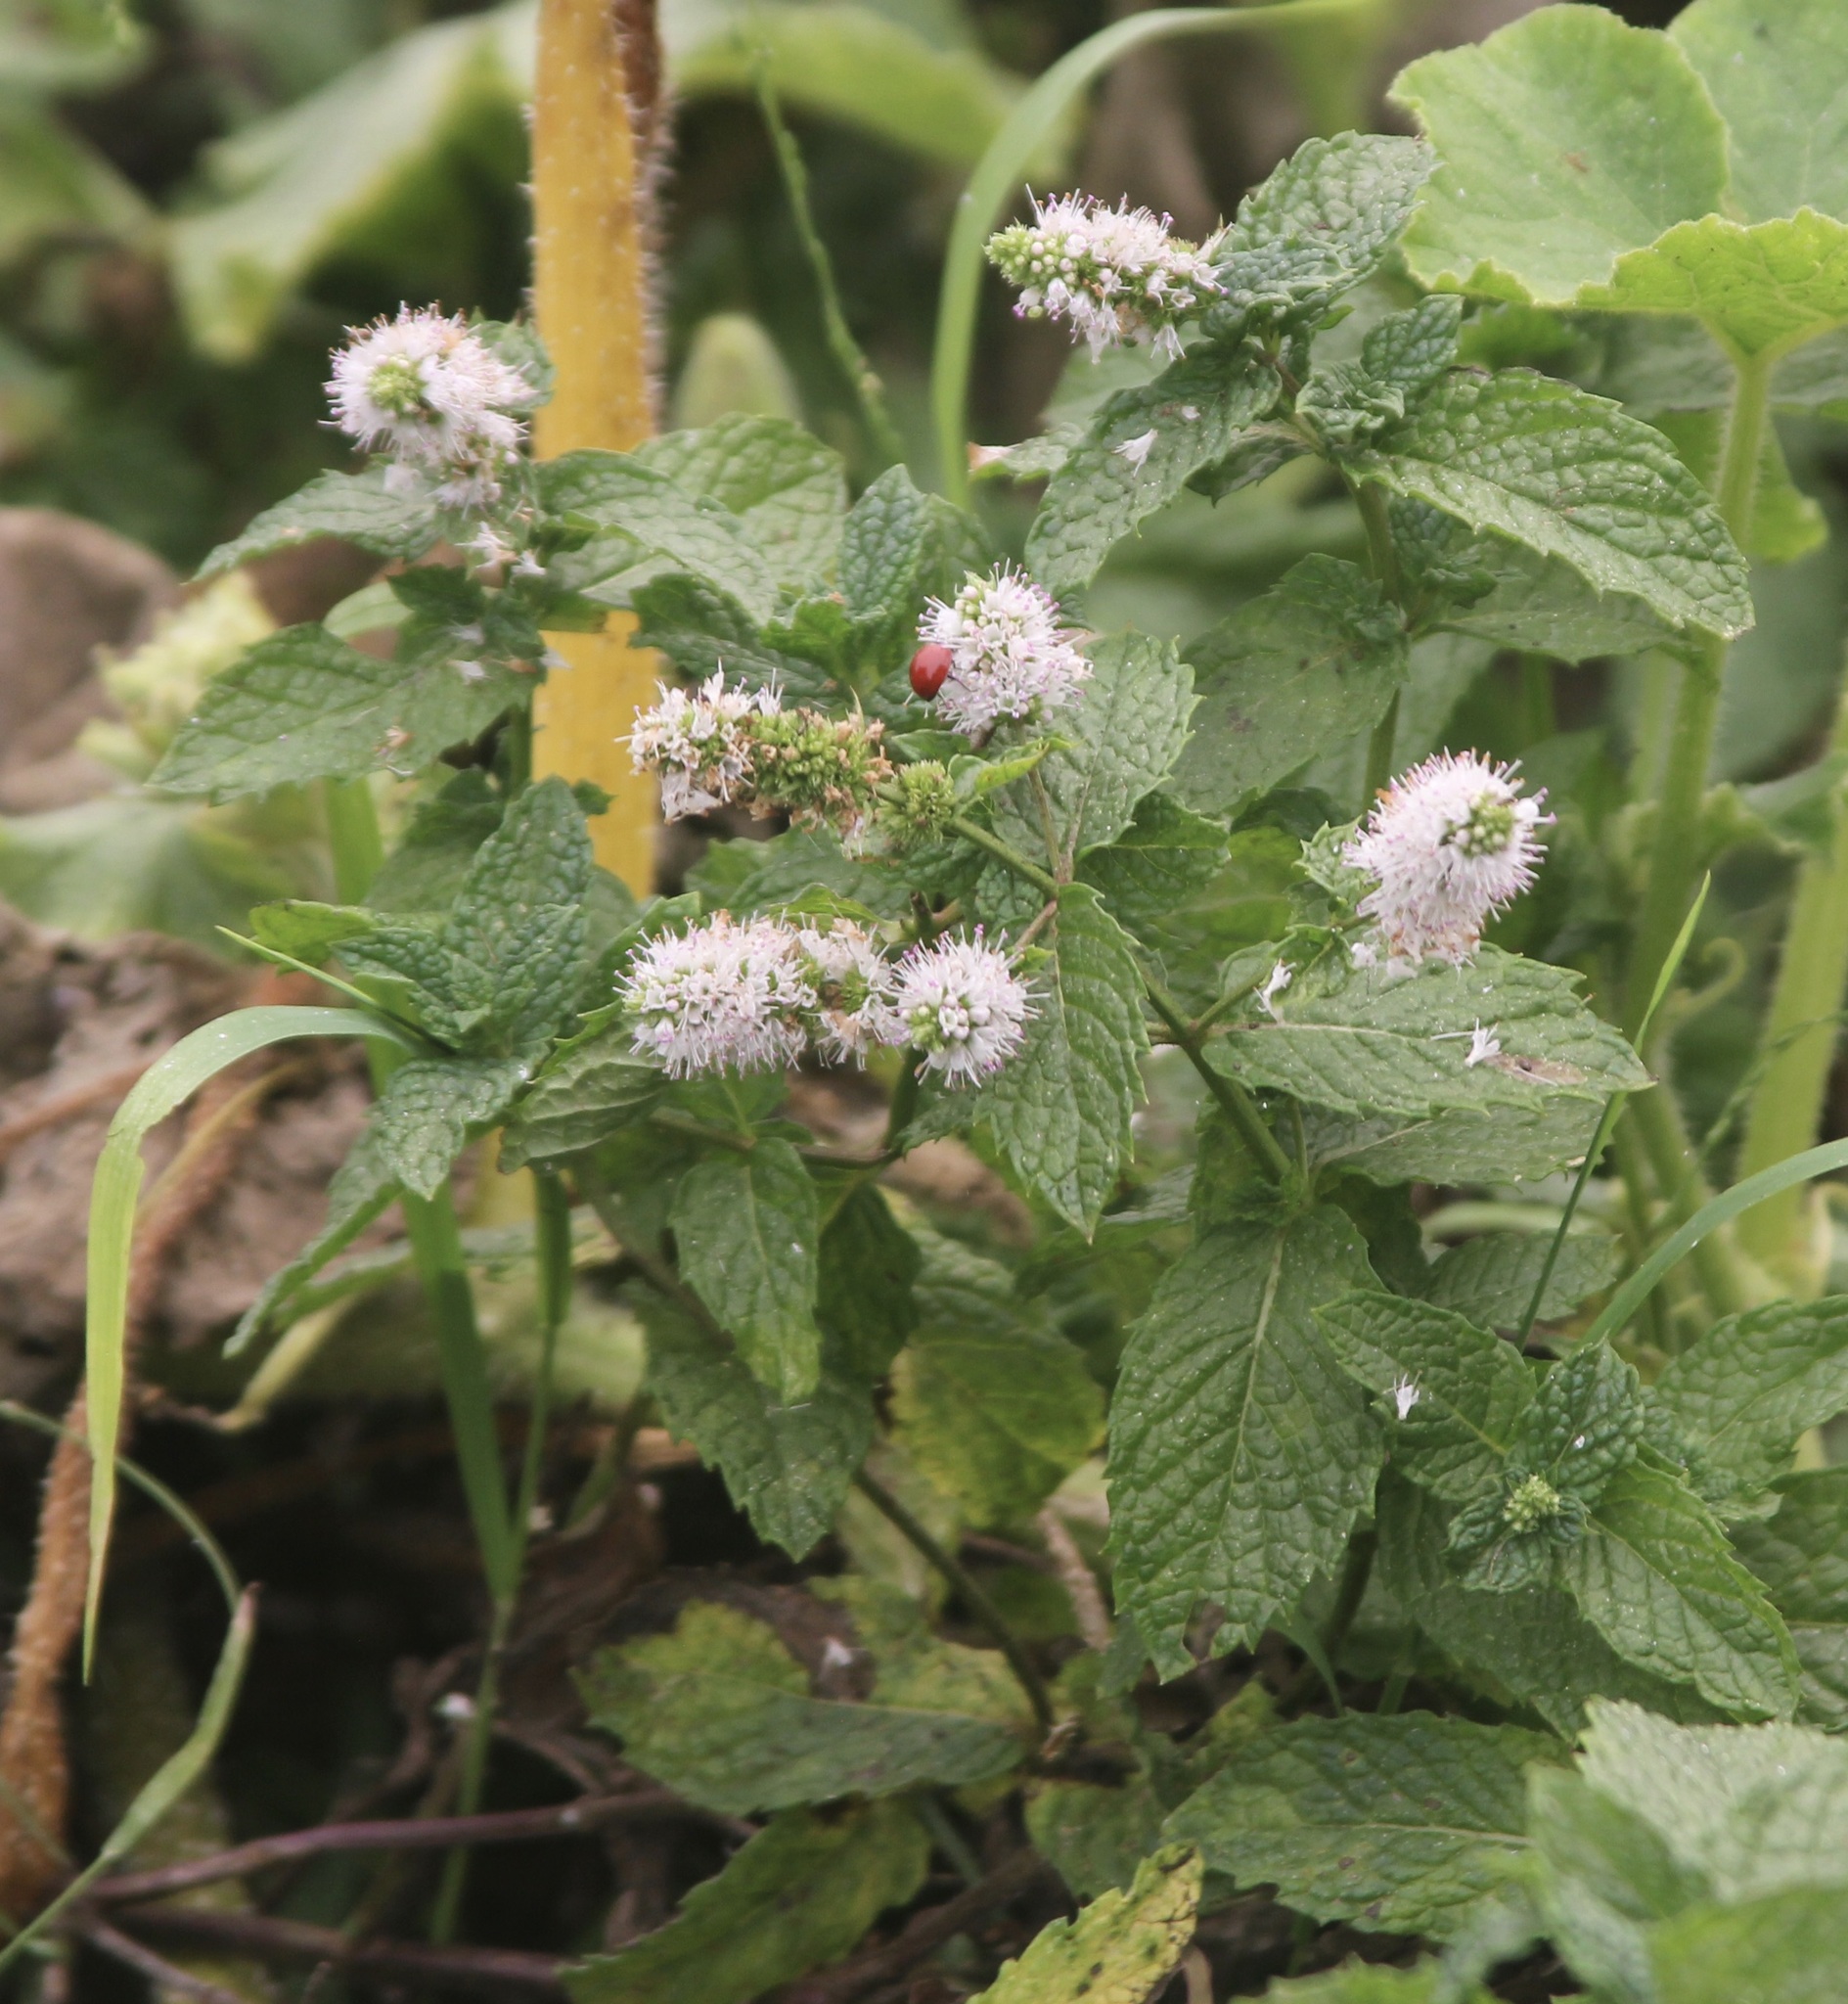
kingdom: Animalia
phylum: Arthropoda
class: Insecta
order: Coleoptera
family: Coccinellidae
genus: Cycloneda
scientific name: Cycloneda sanguinea
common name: Ladybird beetle
